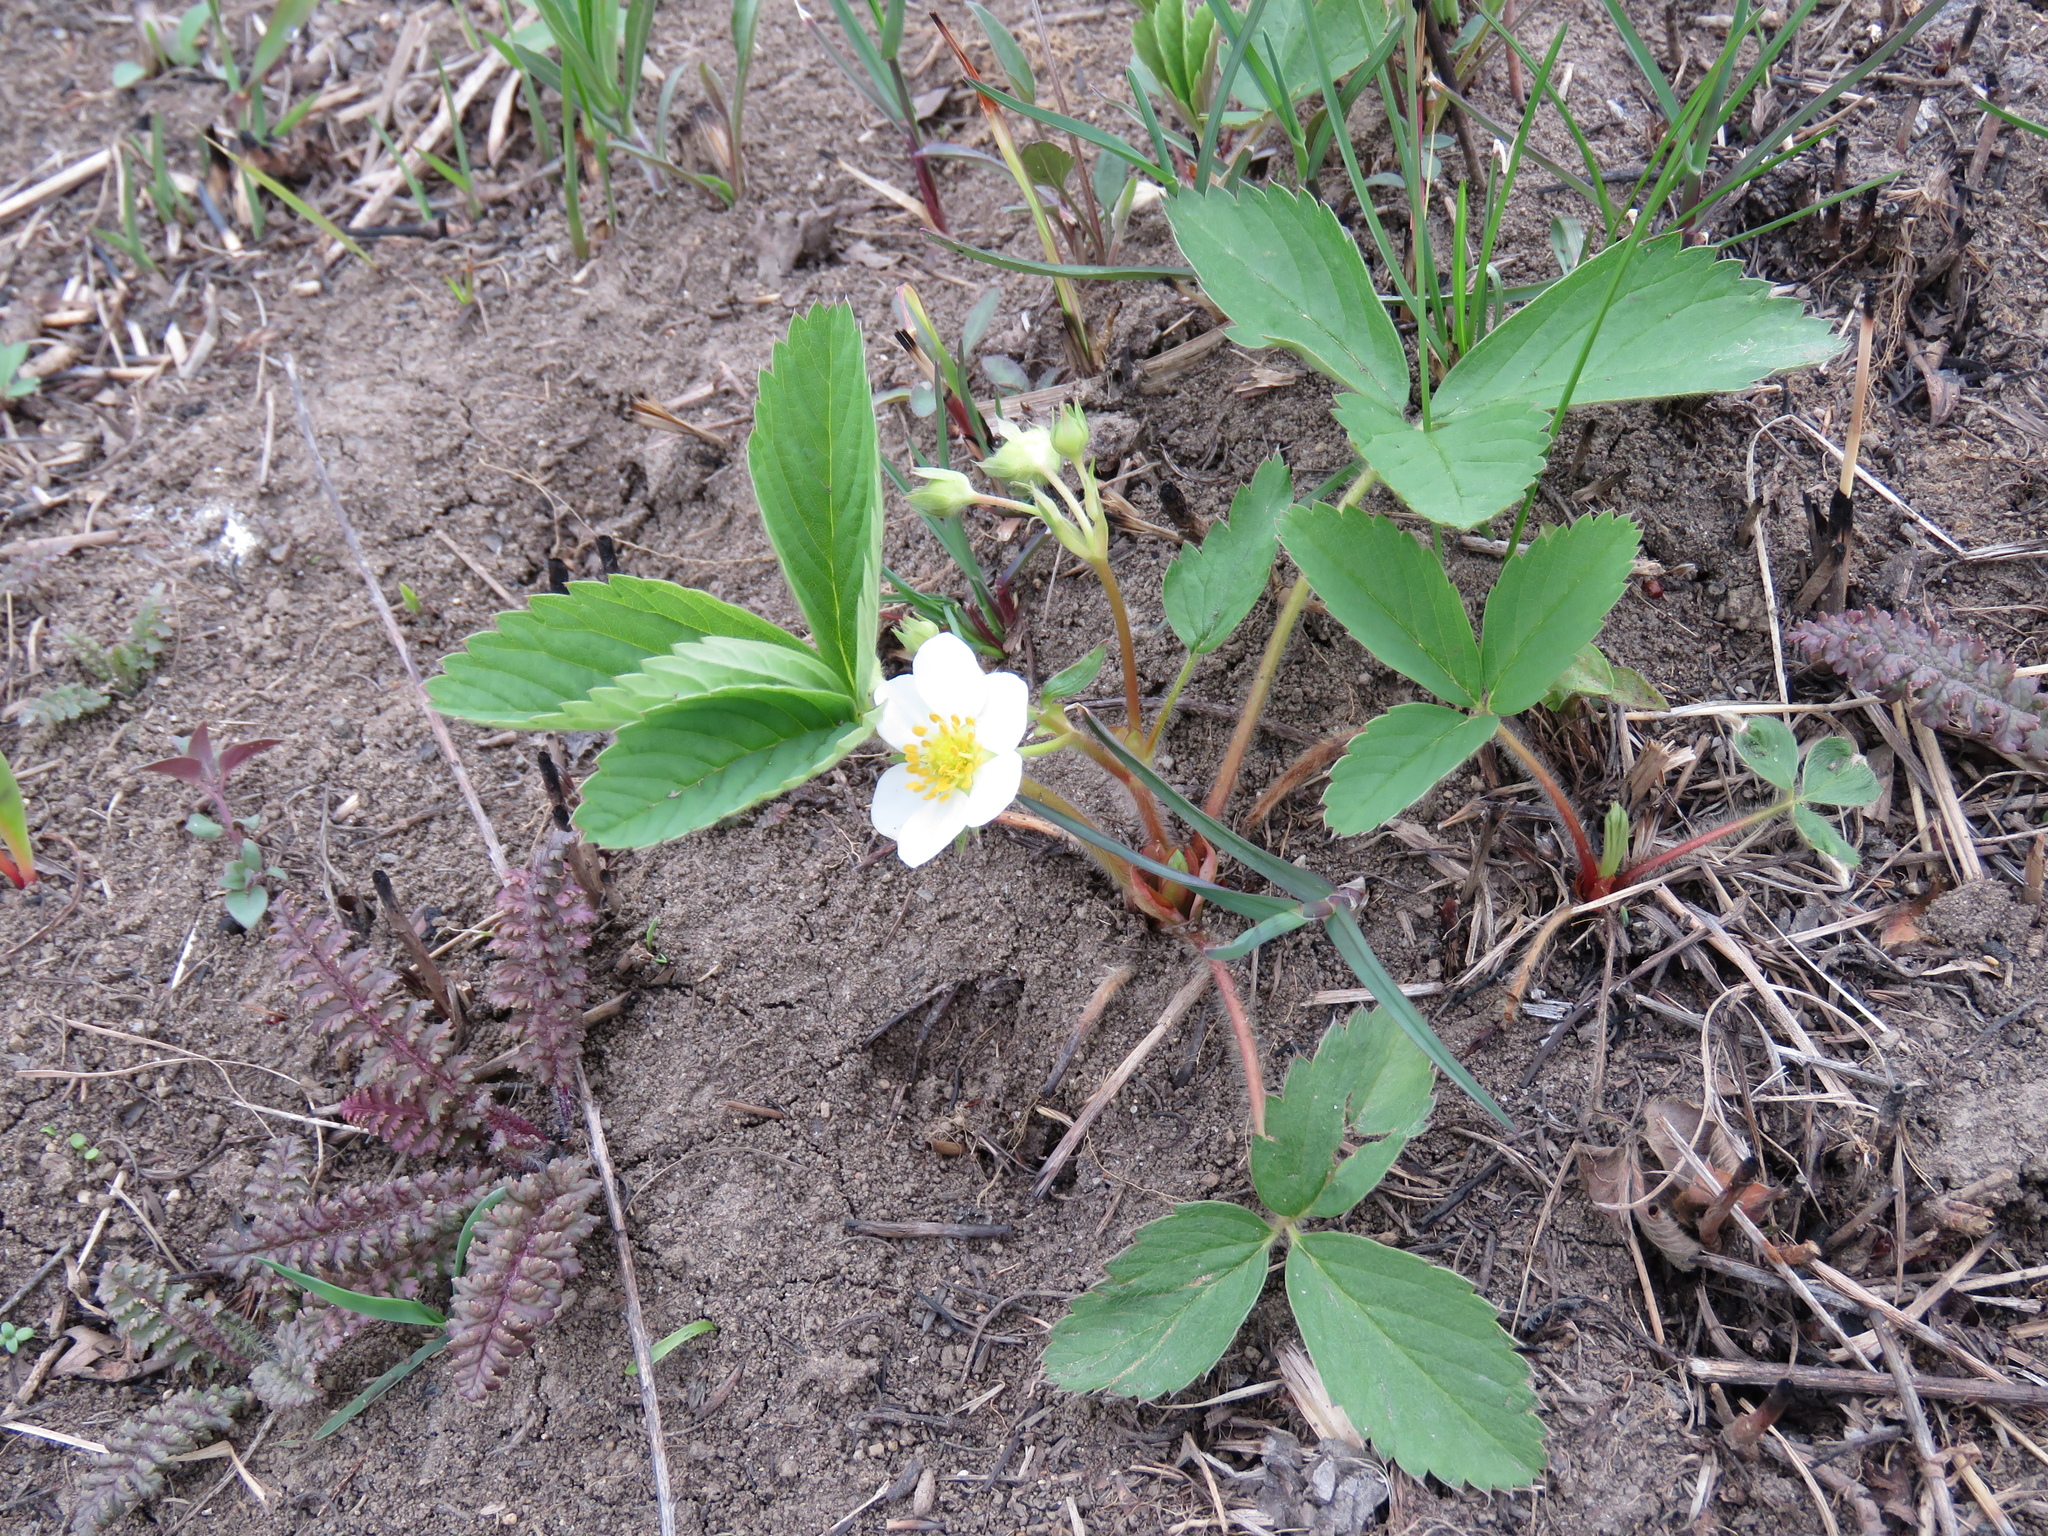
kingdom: Plantae
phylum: Tracheophyta
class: Magnoliopsida
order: Rosales
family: Rosaceae
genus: Fragaria
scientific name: Fragaria virginiana
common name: Thickleaved wild strawberry
